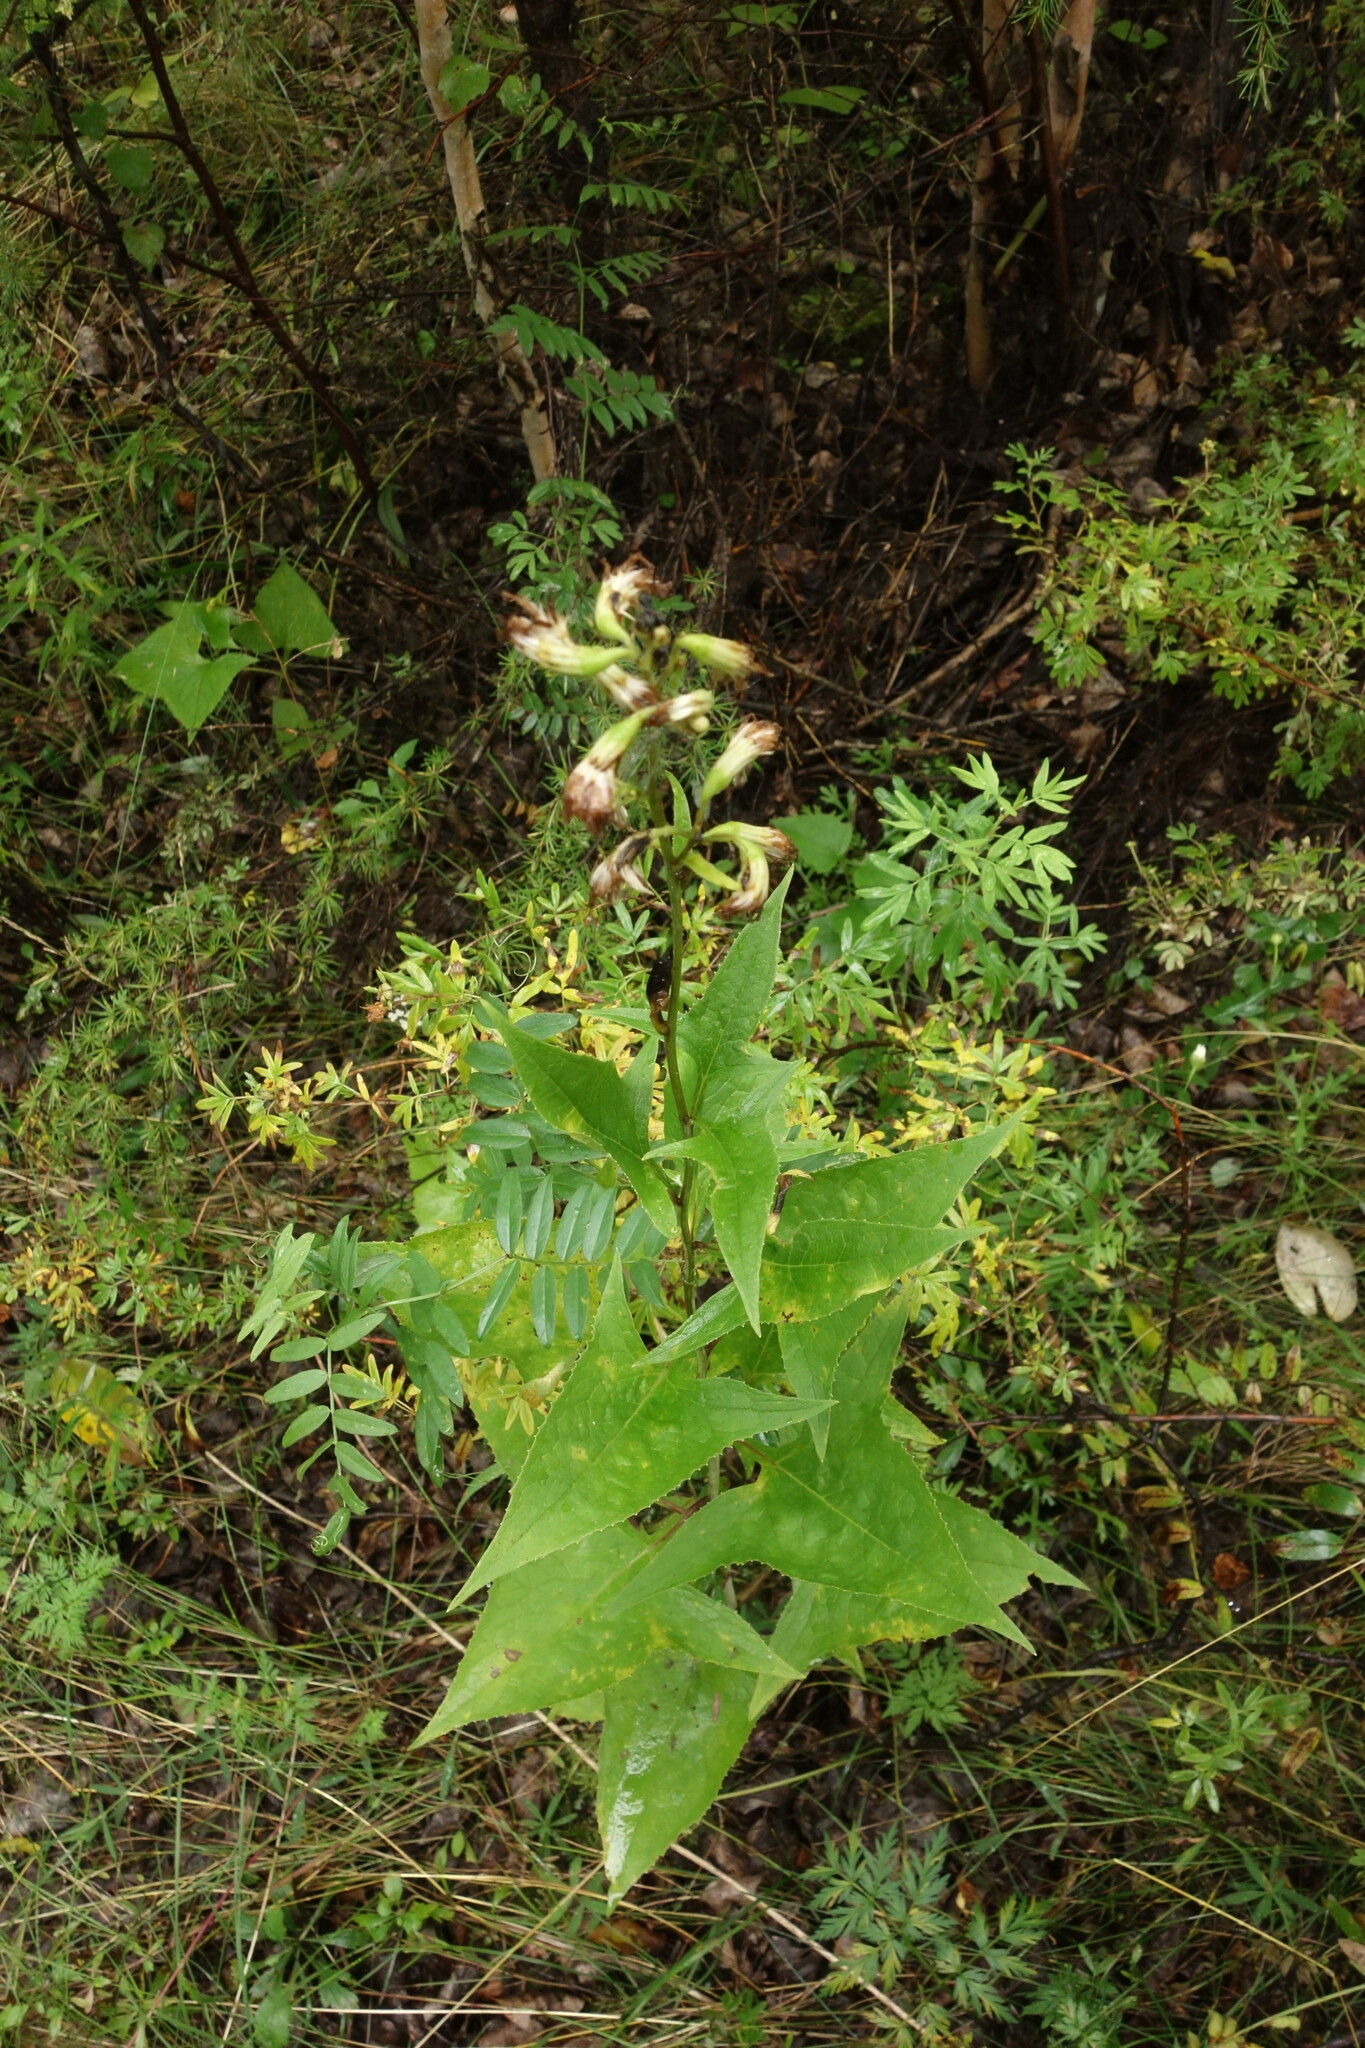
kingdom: Plantae
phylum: Tracheophyta
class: Magnoliopsida
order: Asterales
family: Asteraceae
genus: Parasenecio
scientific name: Parasenecio hastatus
